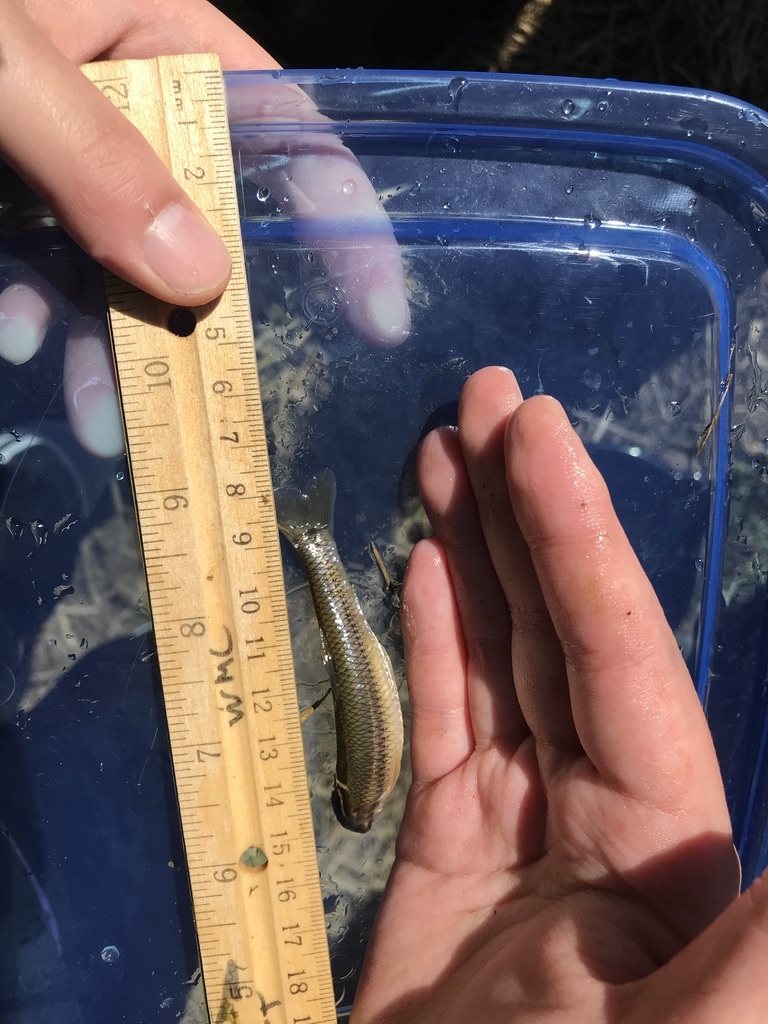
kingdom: Animalia
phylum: Chordata
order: Cypriniformes
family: Cyprinidae
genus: Pimephales
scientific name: Pimephales notatus
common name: Bluntnose minnow
